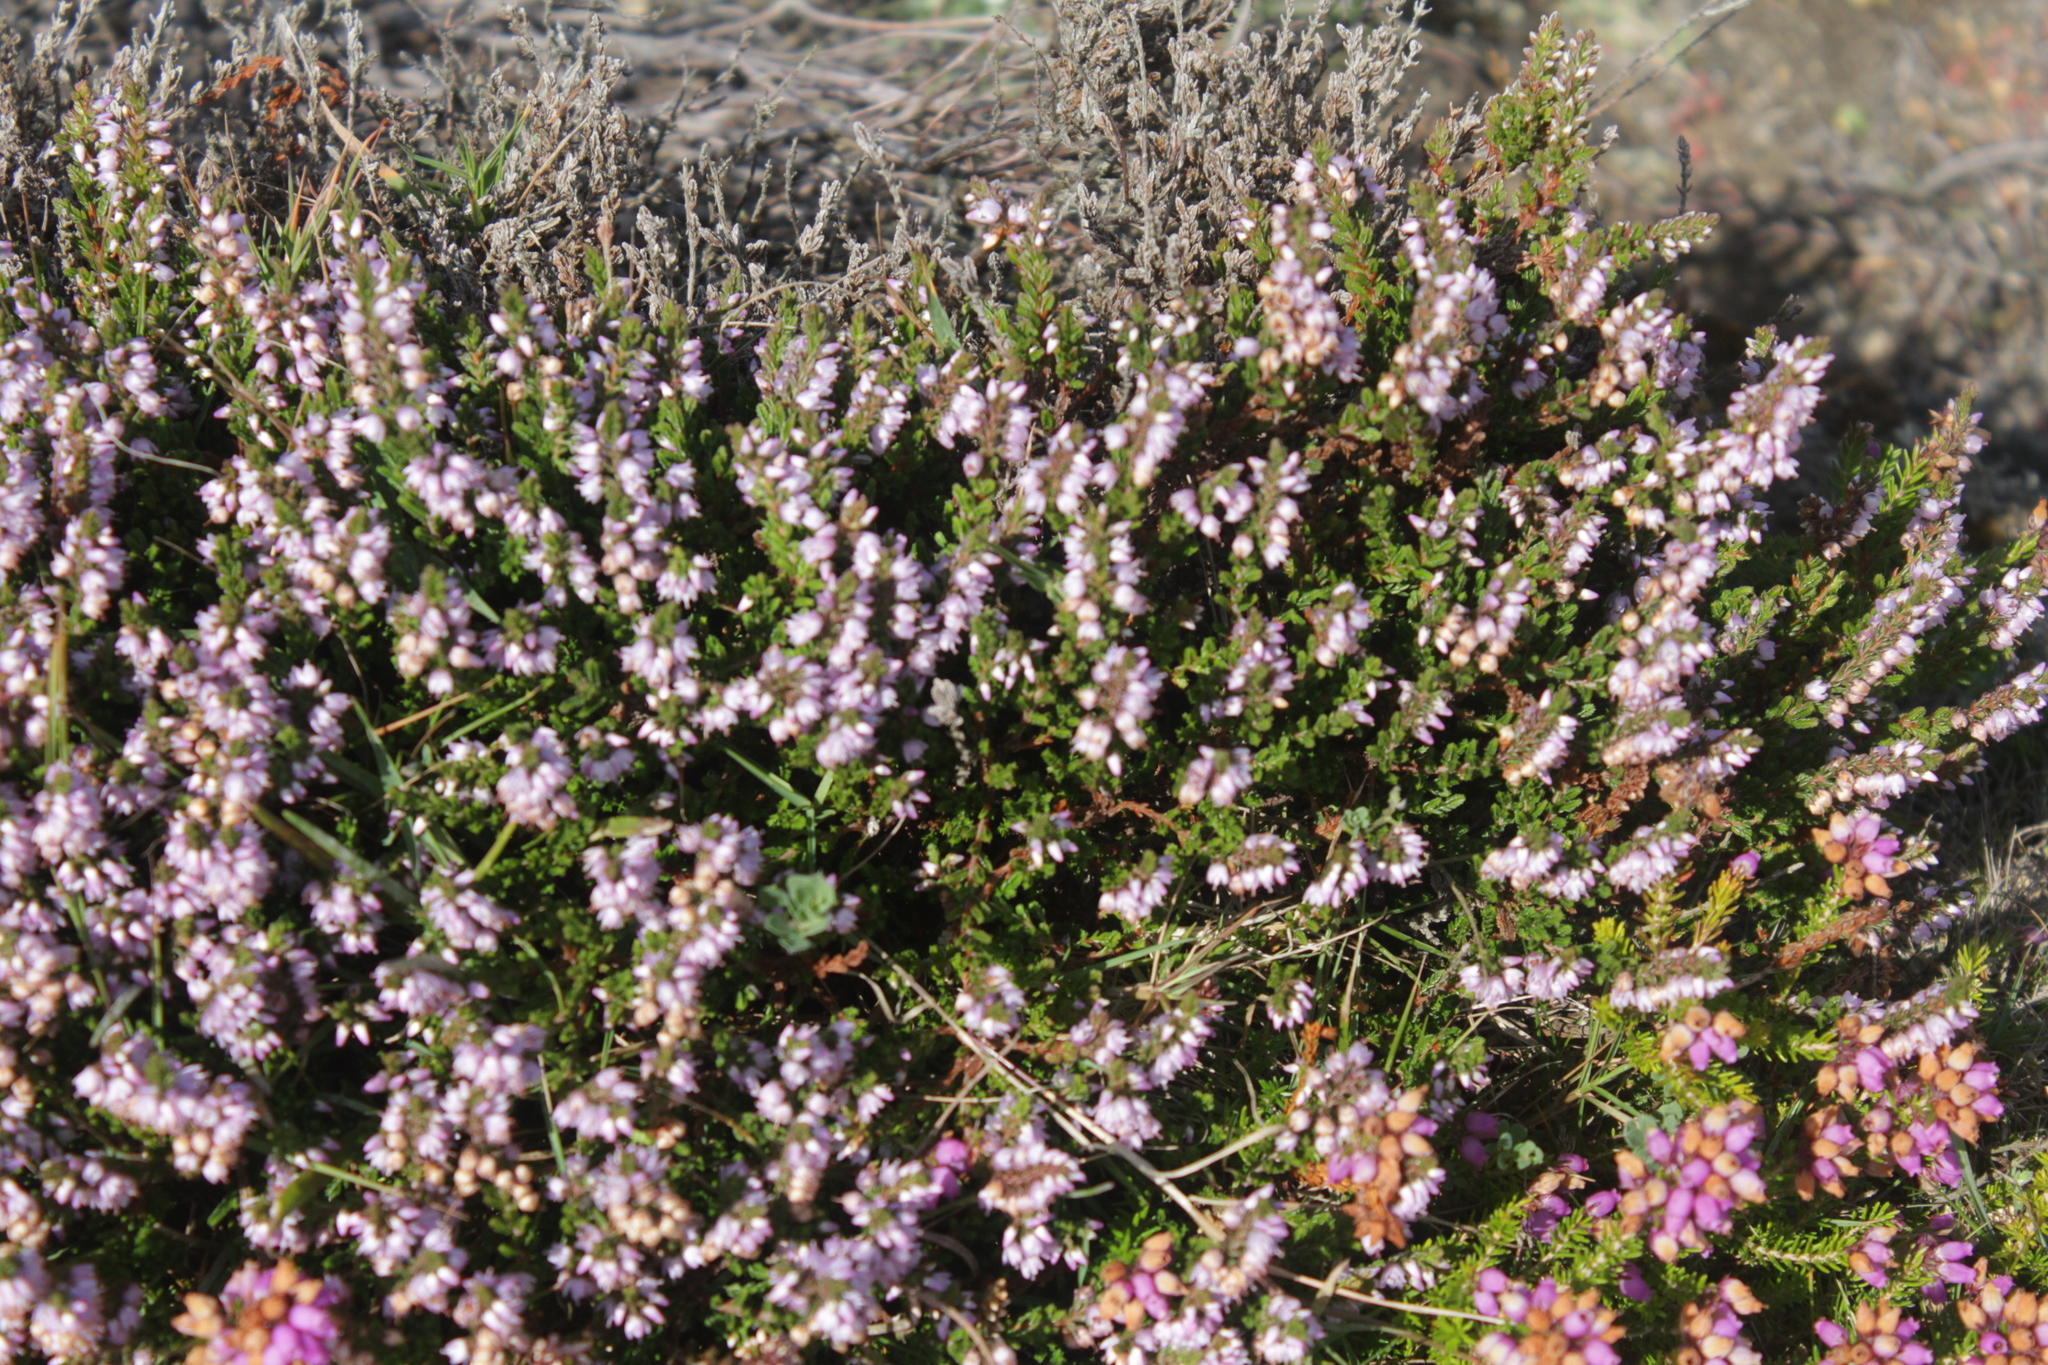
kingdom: Plantae
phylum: Tracheophyta
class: Magnoliopsida
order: Ericales
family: Ericaceae
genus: Calluna
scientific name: Calluna vulgaris
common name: Heather
